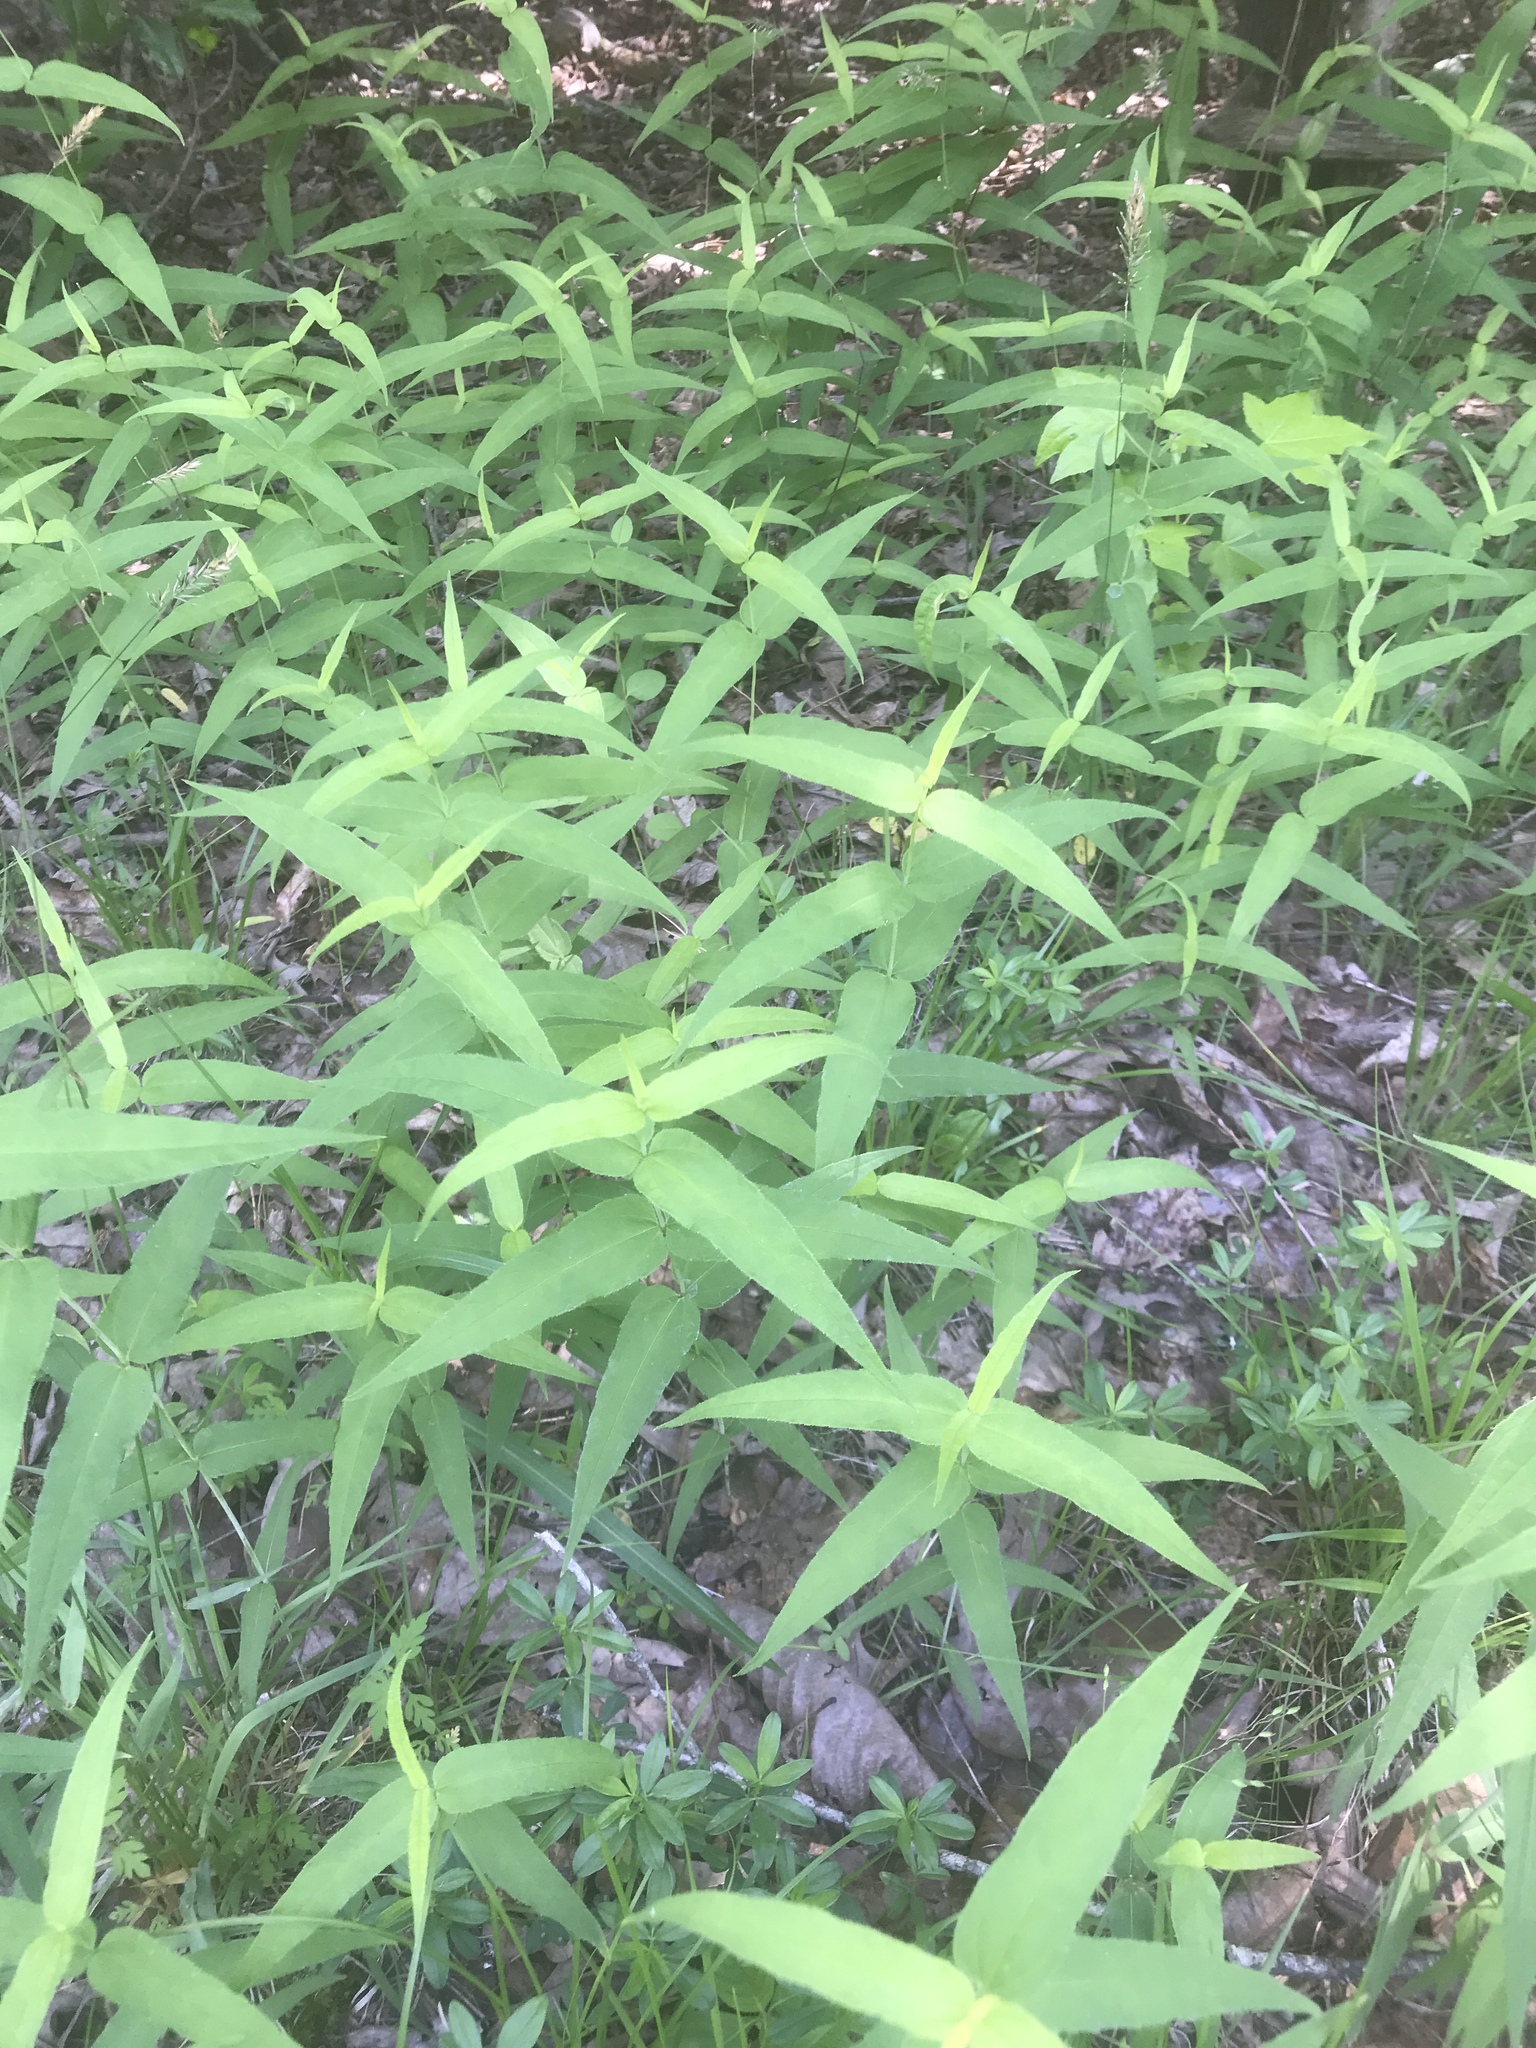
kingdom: Plantae
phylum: Tracheophyta
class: Magnoliopsida
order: Asterales
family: Asteraceae
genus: Helianthus
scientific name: Helianthus divaricatus
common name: Divergent sunflower
